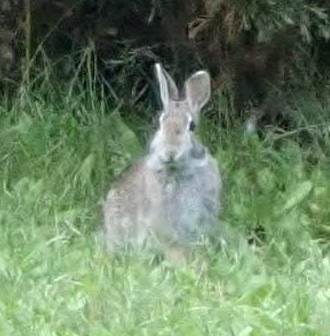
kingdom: Animalia
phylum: Chordata
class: Mammalia
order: Lagomorpha
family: Leporidae
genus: Sylvilagus
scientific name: Sylvilagus floridanus
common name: Eastern cottontail
